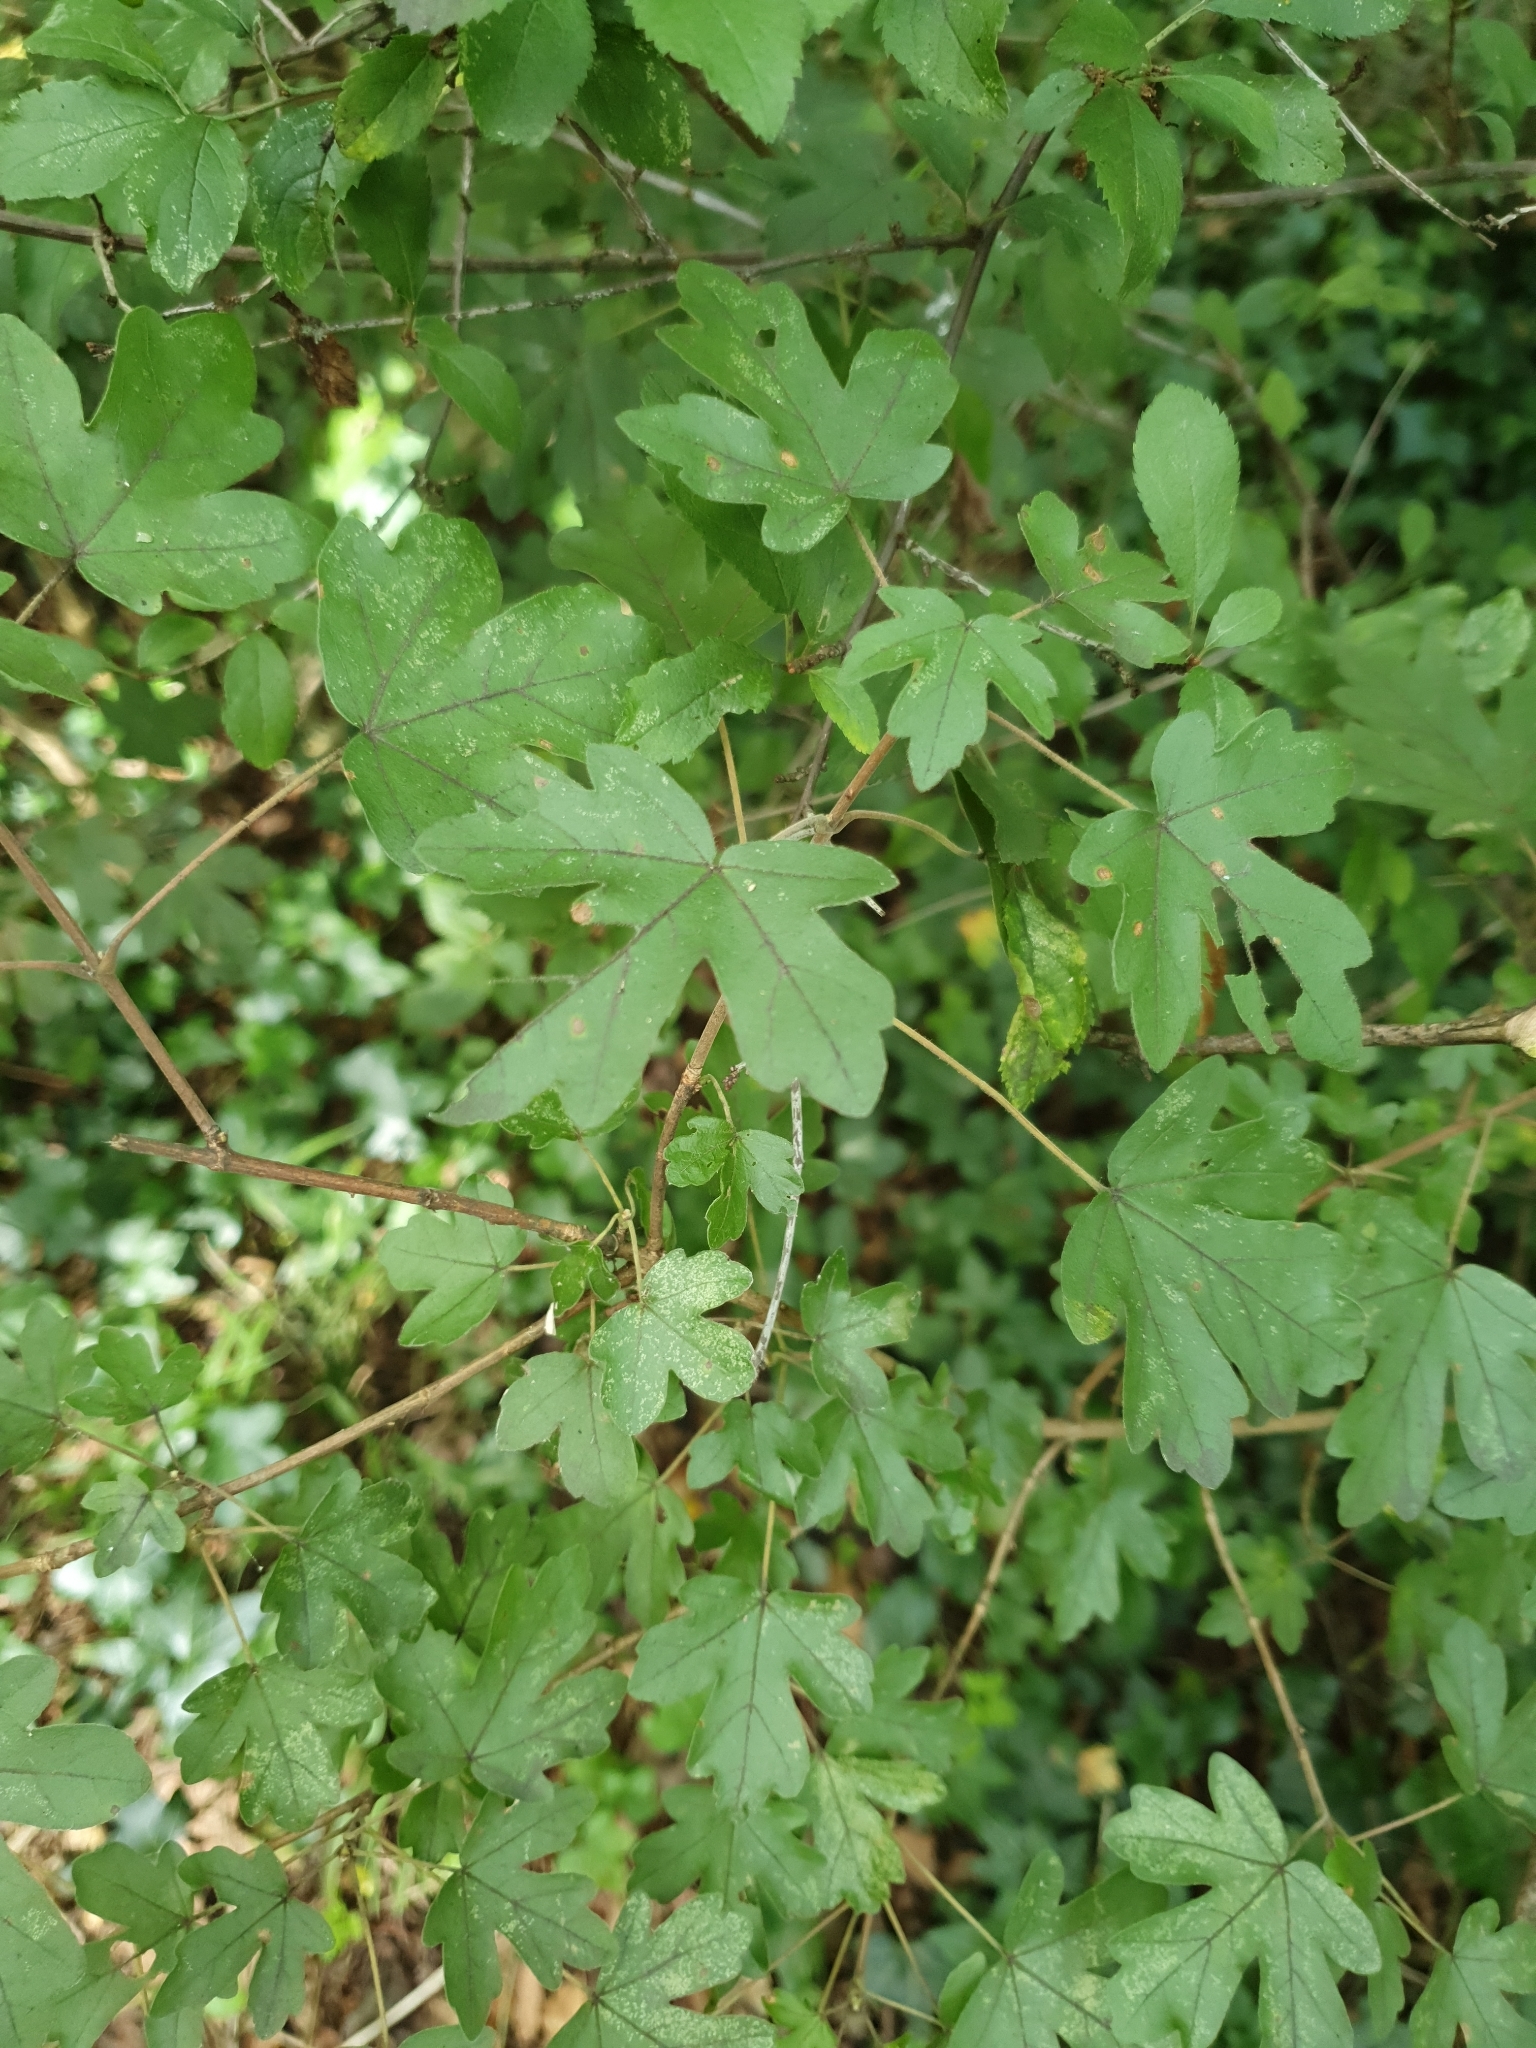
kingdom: Plantae
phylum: Tracheophyta
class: Magnoliopsida
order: Sapindales
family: Sapindaceae
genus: Acer
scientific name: Acer campestre
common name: Field maple
